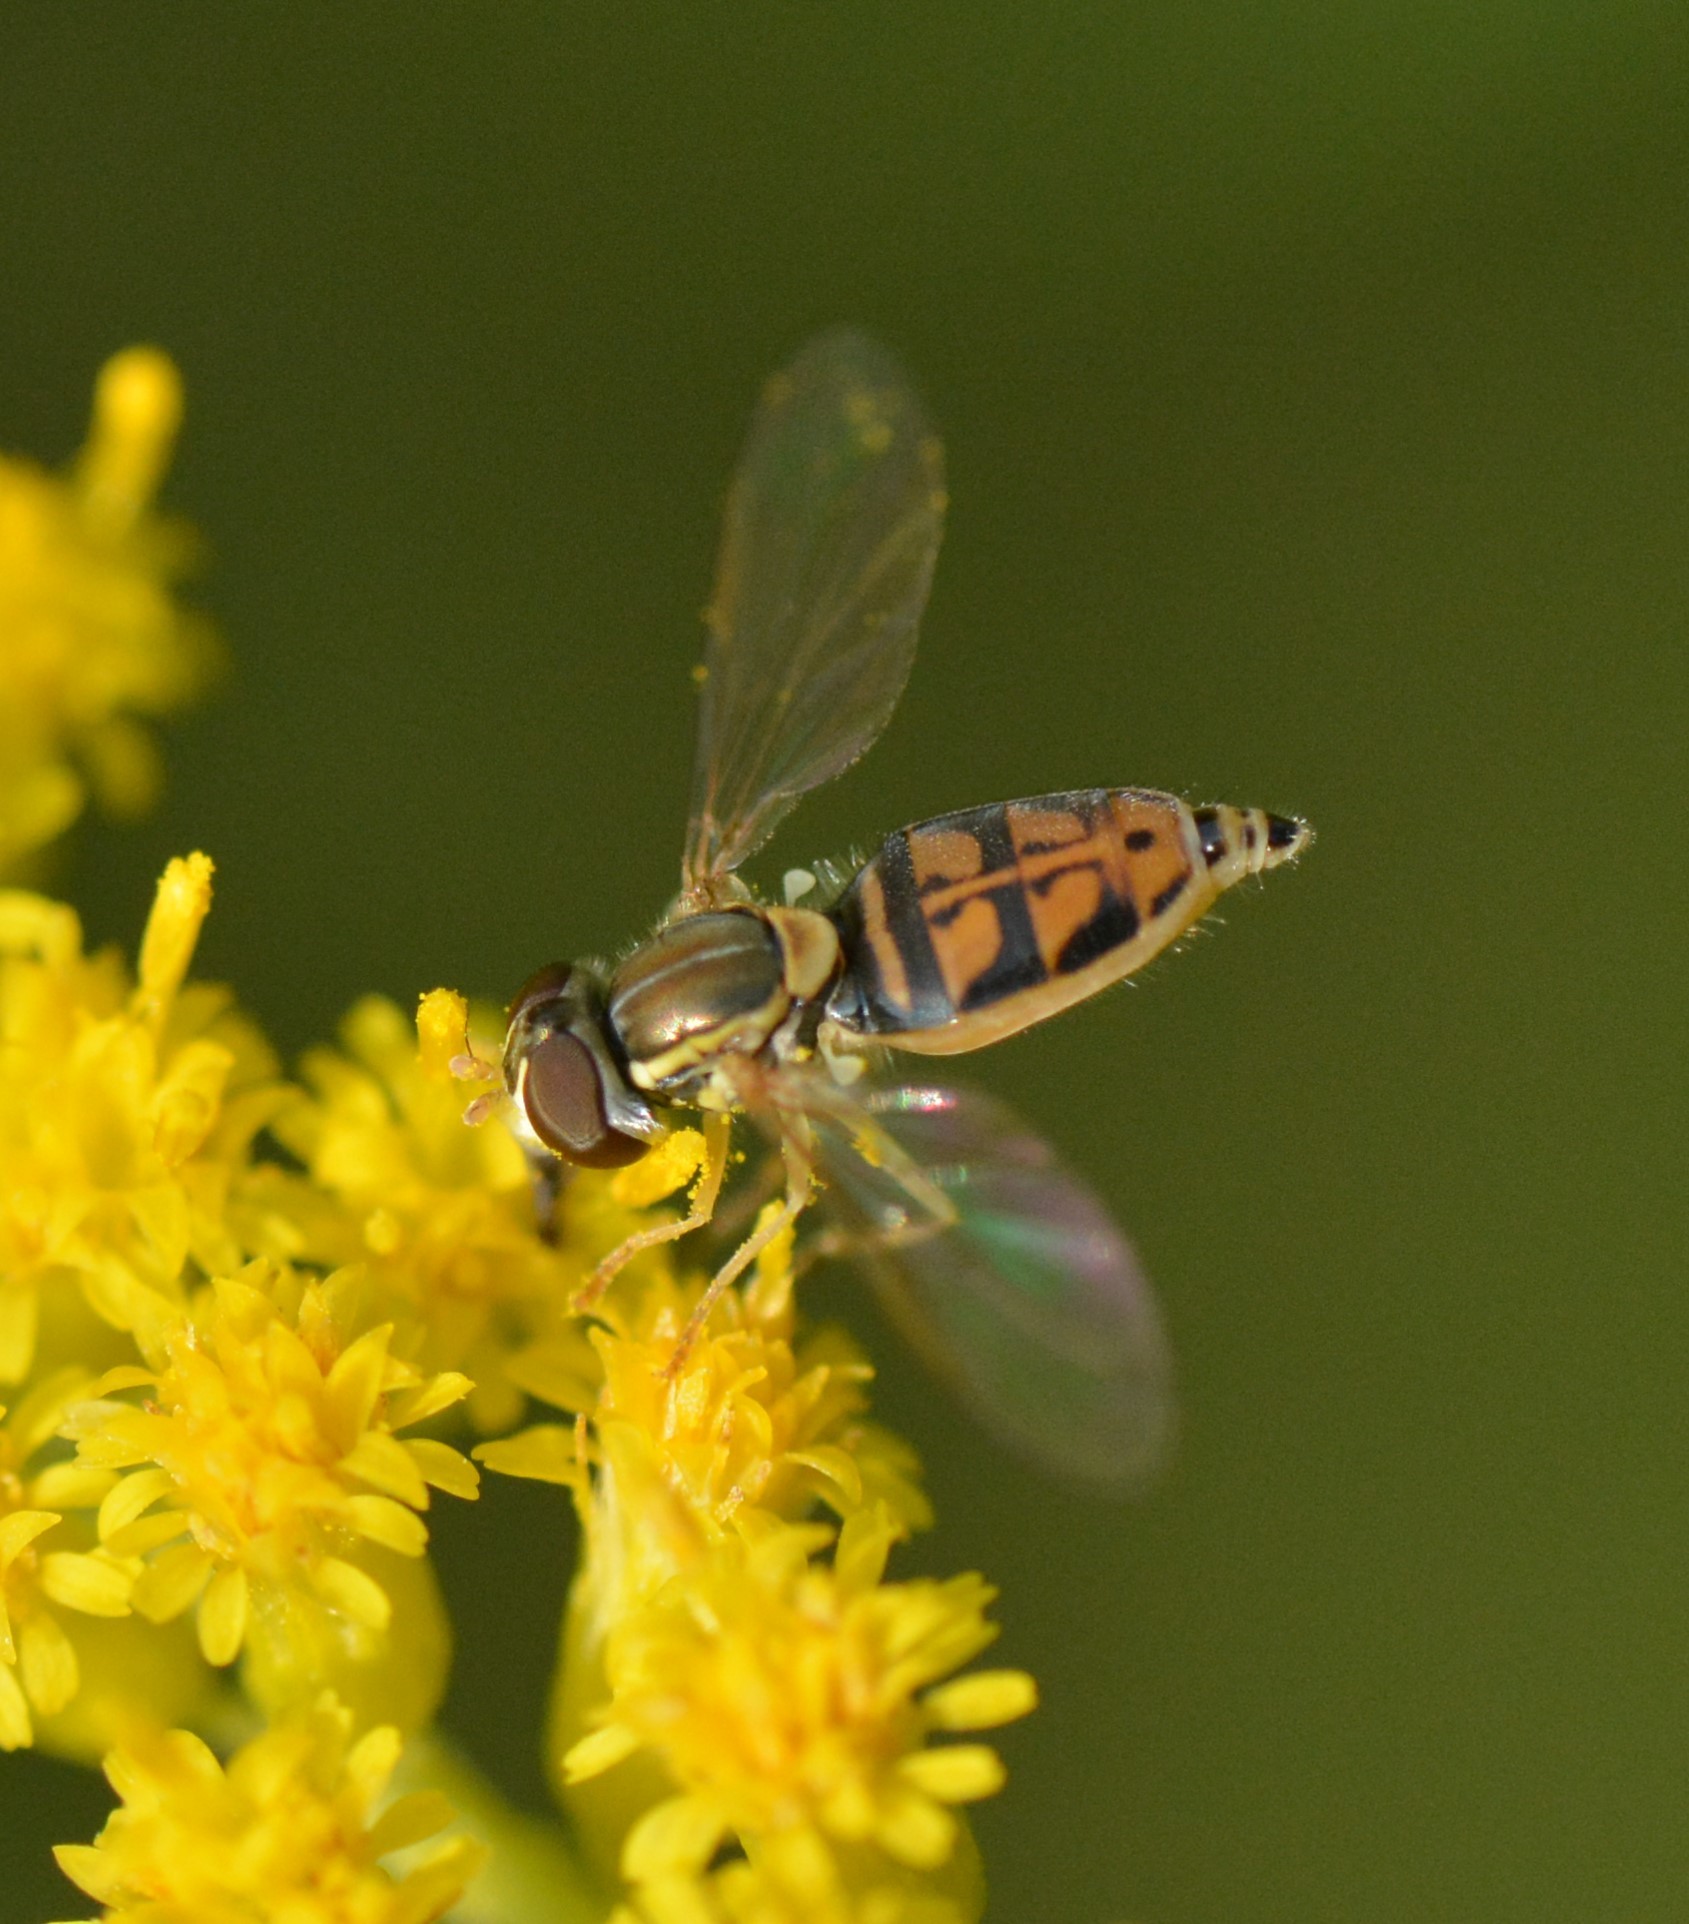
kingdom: Animalia
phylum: Arthropoda
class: Insecta
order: Diptera
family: Syrphidae
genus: Toxomerus
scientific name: Toxomerus marginatus
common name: Syrphid fly
